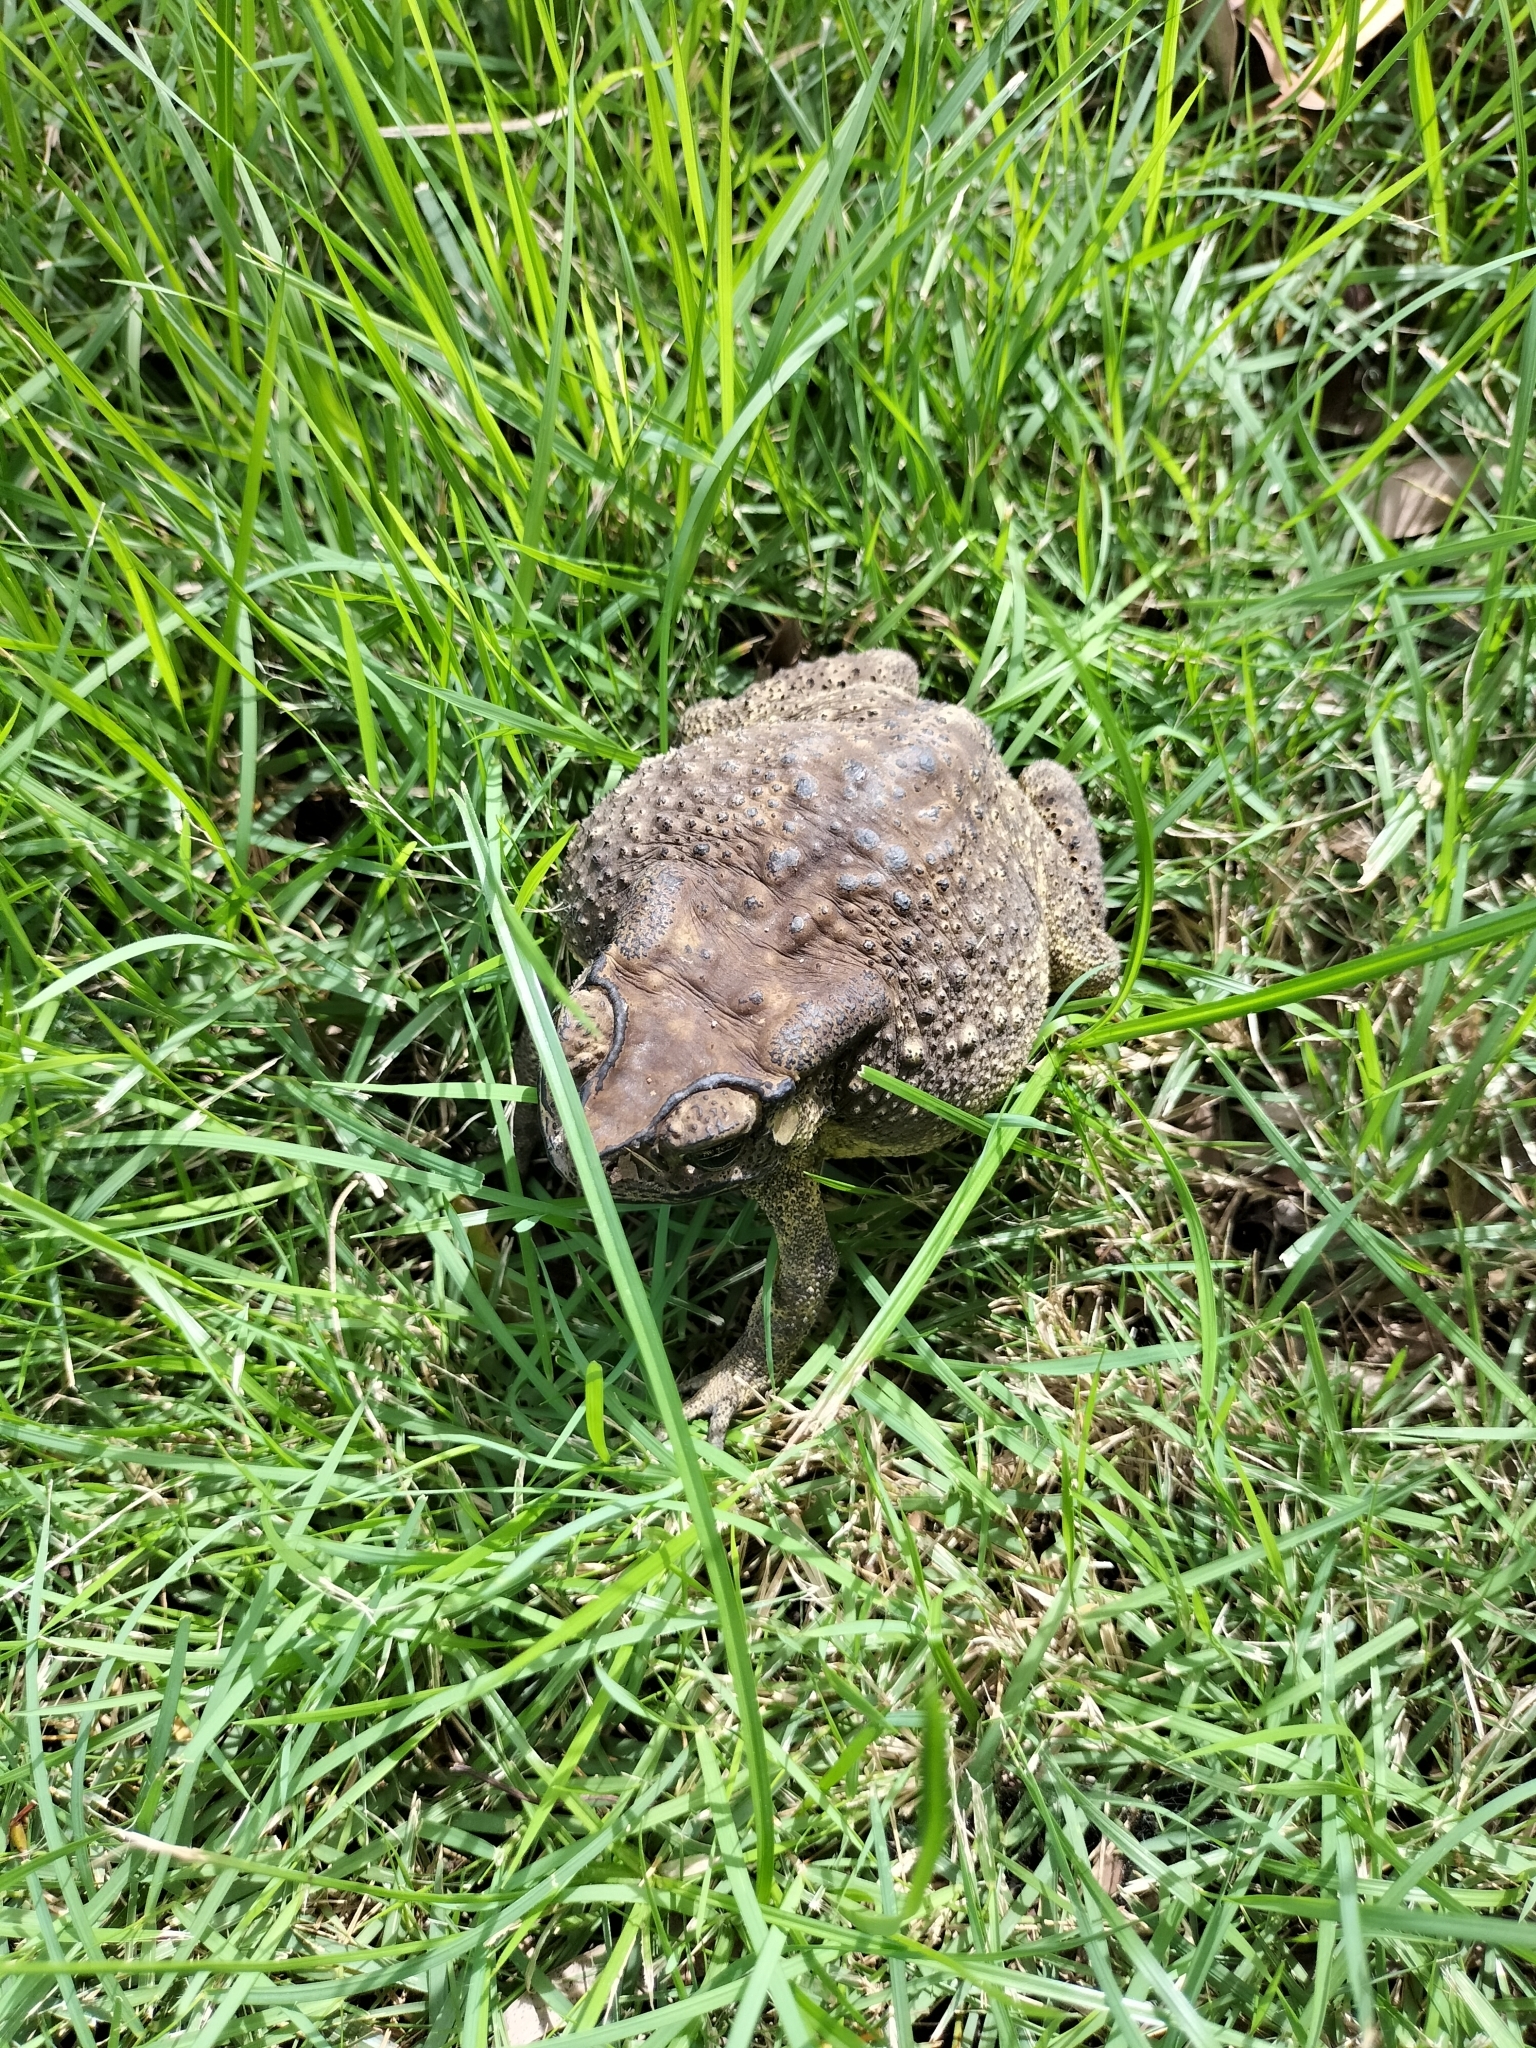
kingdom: Animalia
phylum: Chordata
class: Amphibia
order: Anura
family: Bufonidae
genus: Duttaphrynus
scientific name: Duttaphrynus melanostictus
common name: Common sunda toad
